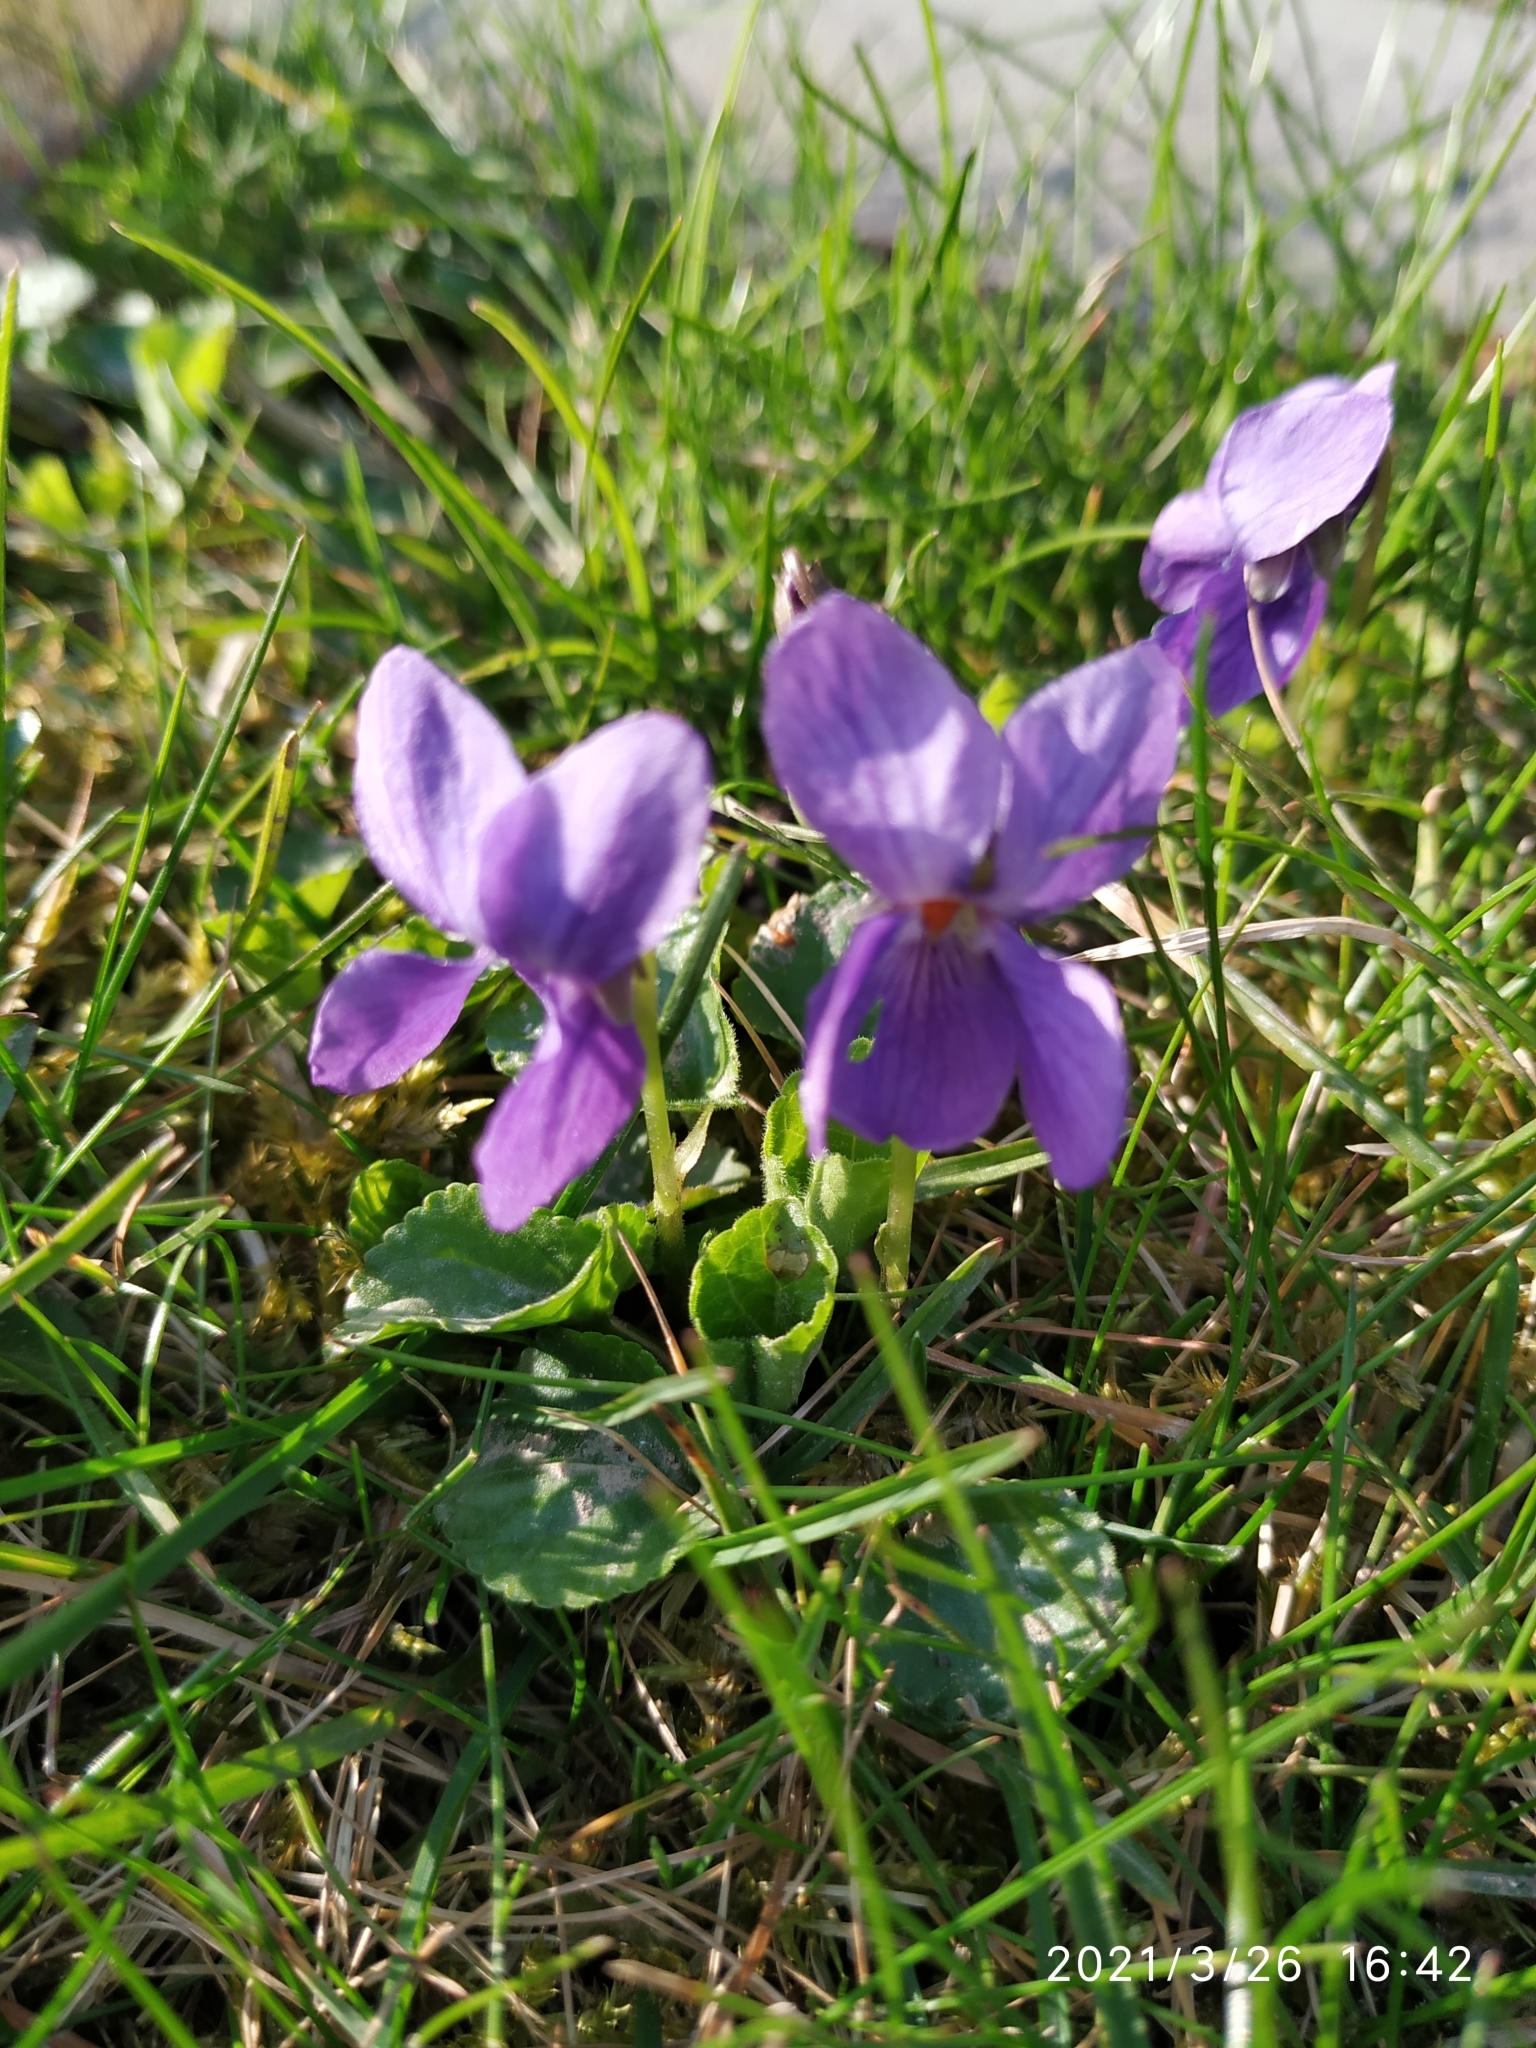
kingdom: Plantae
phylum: Tracheophyta
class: Magnoliopsida
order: Malpighiales
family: Violaceae
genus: Viola
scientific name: Viola odorata
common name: Sweet violet
